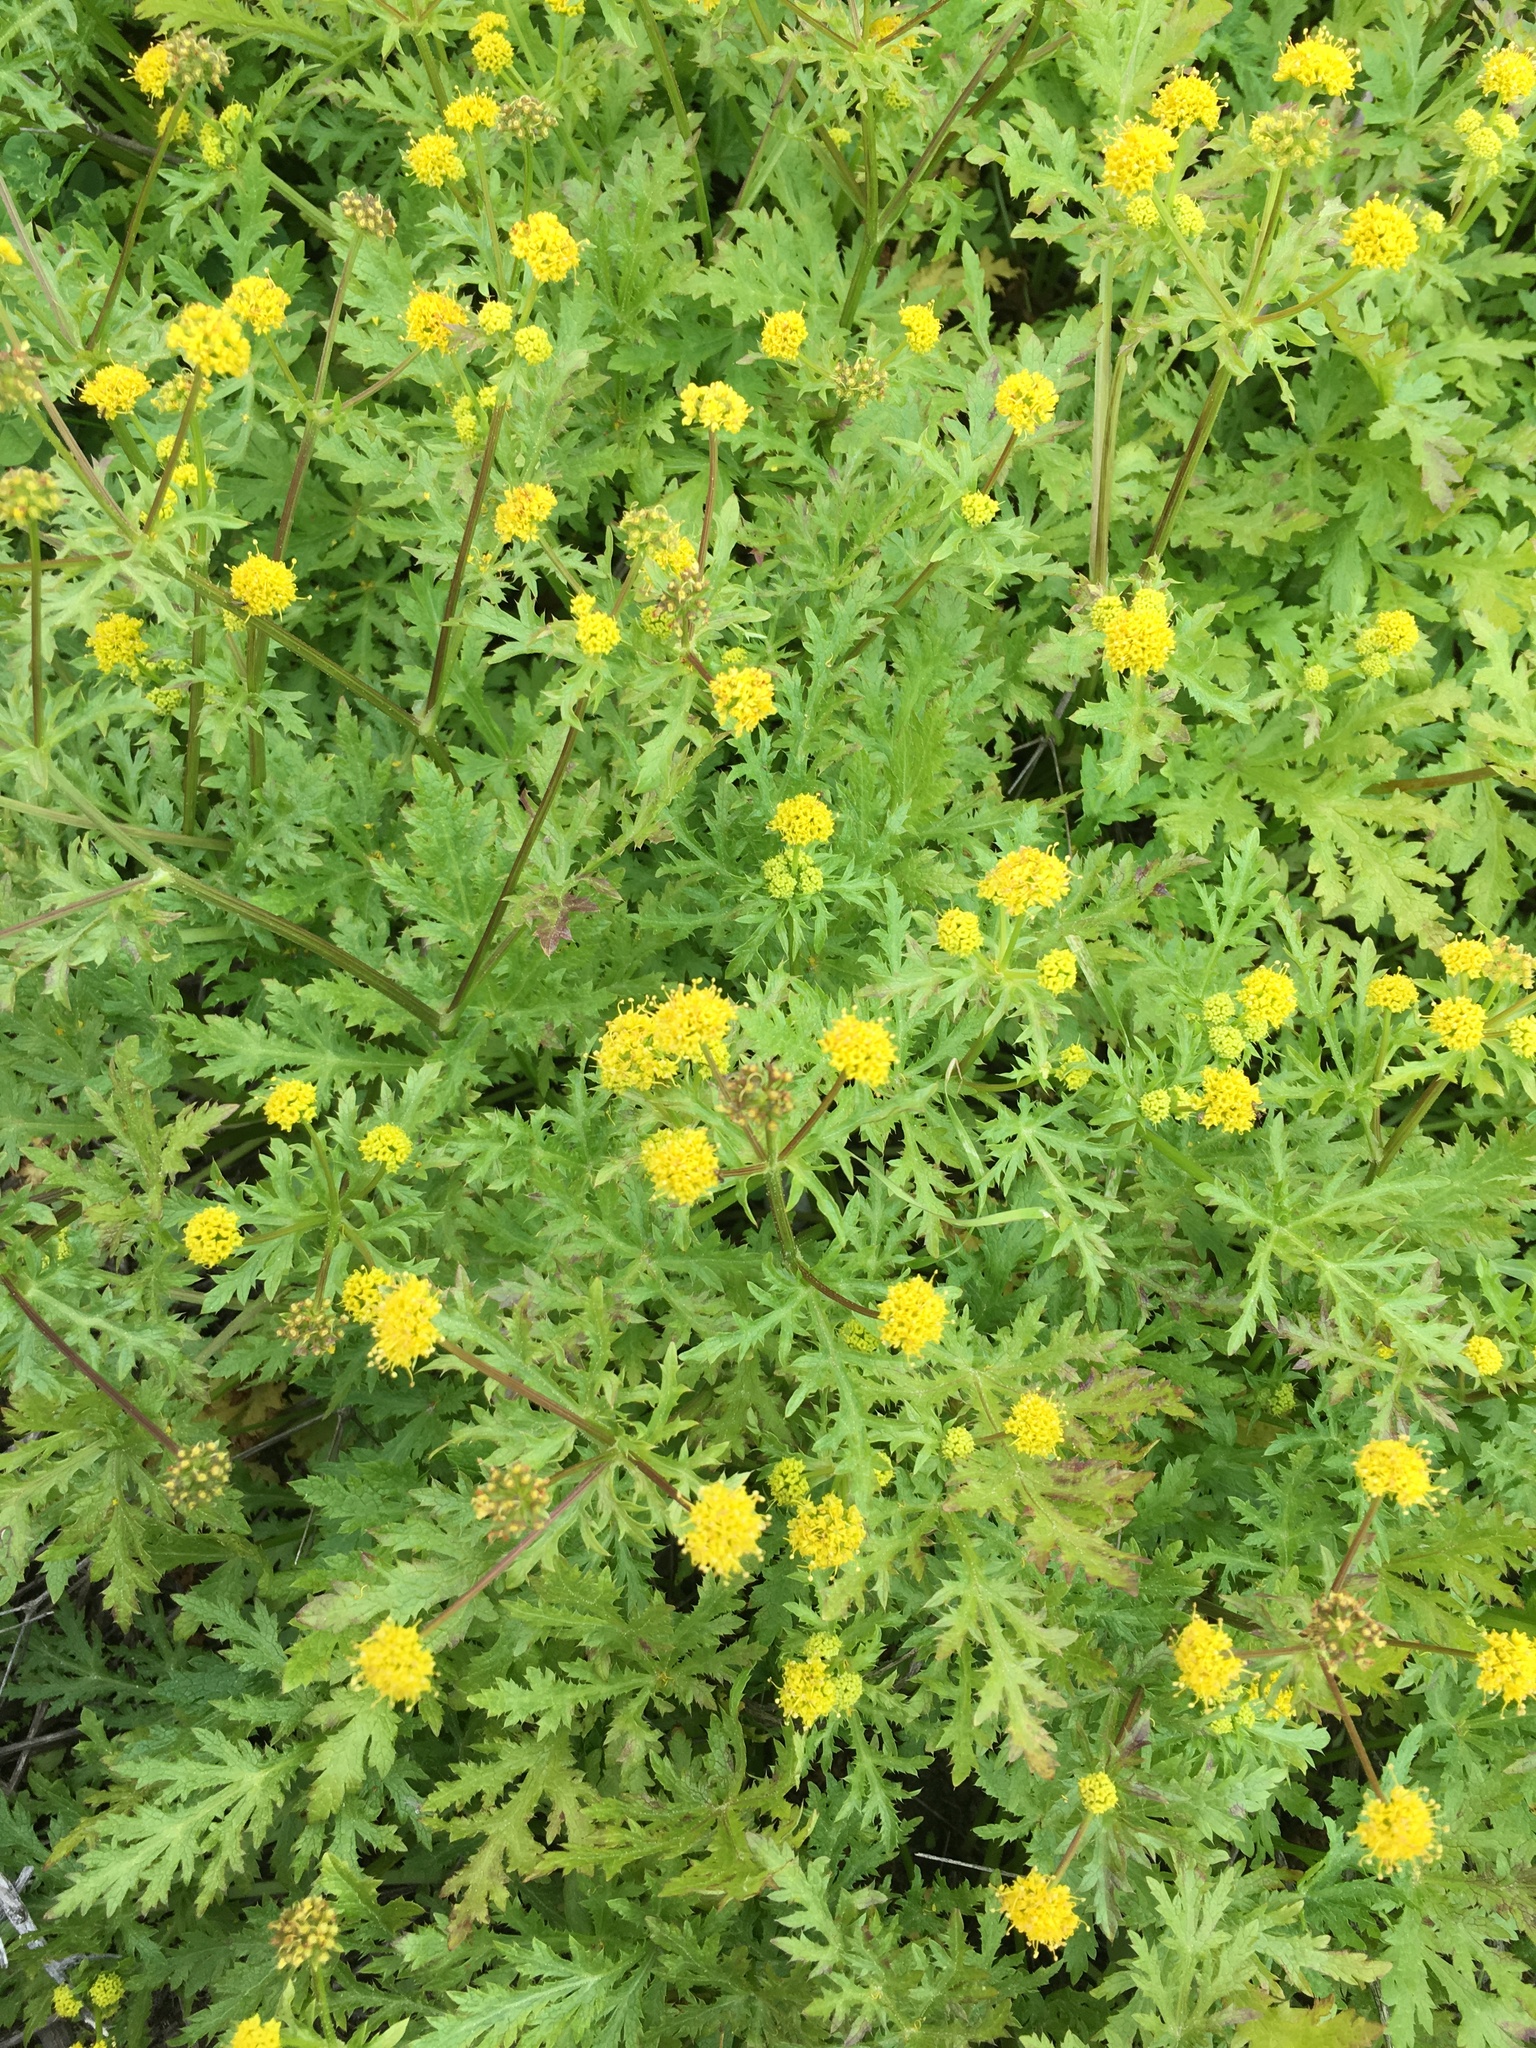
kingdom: Plantae
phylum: Tracheophyta
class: Magnoliopsida
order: Apiales
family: Apiaceae
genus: Sanicula
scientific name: Sanicula arguta
